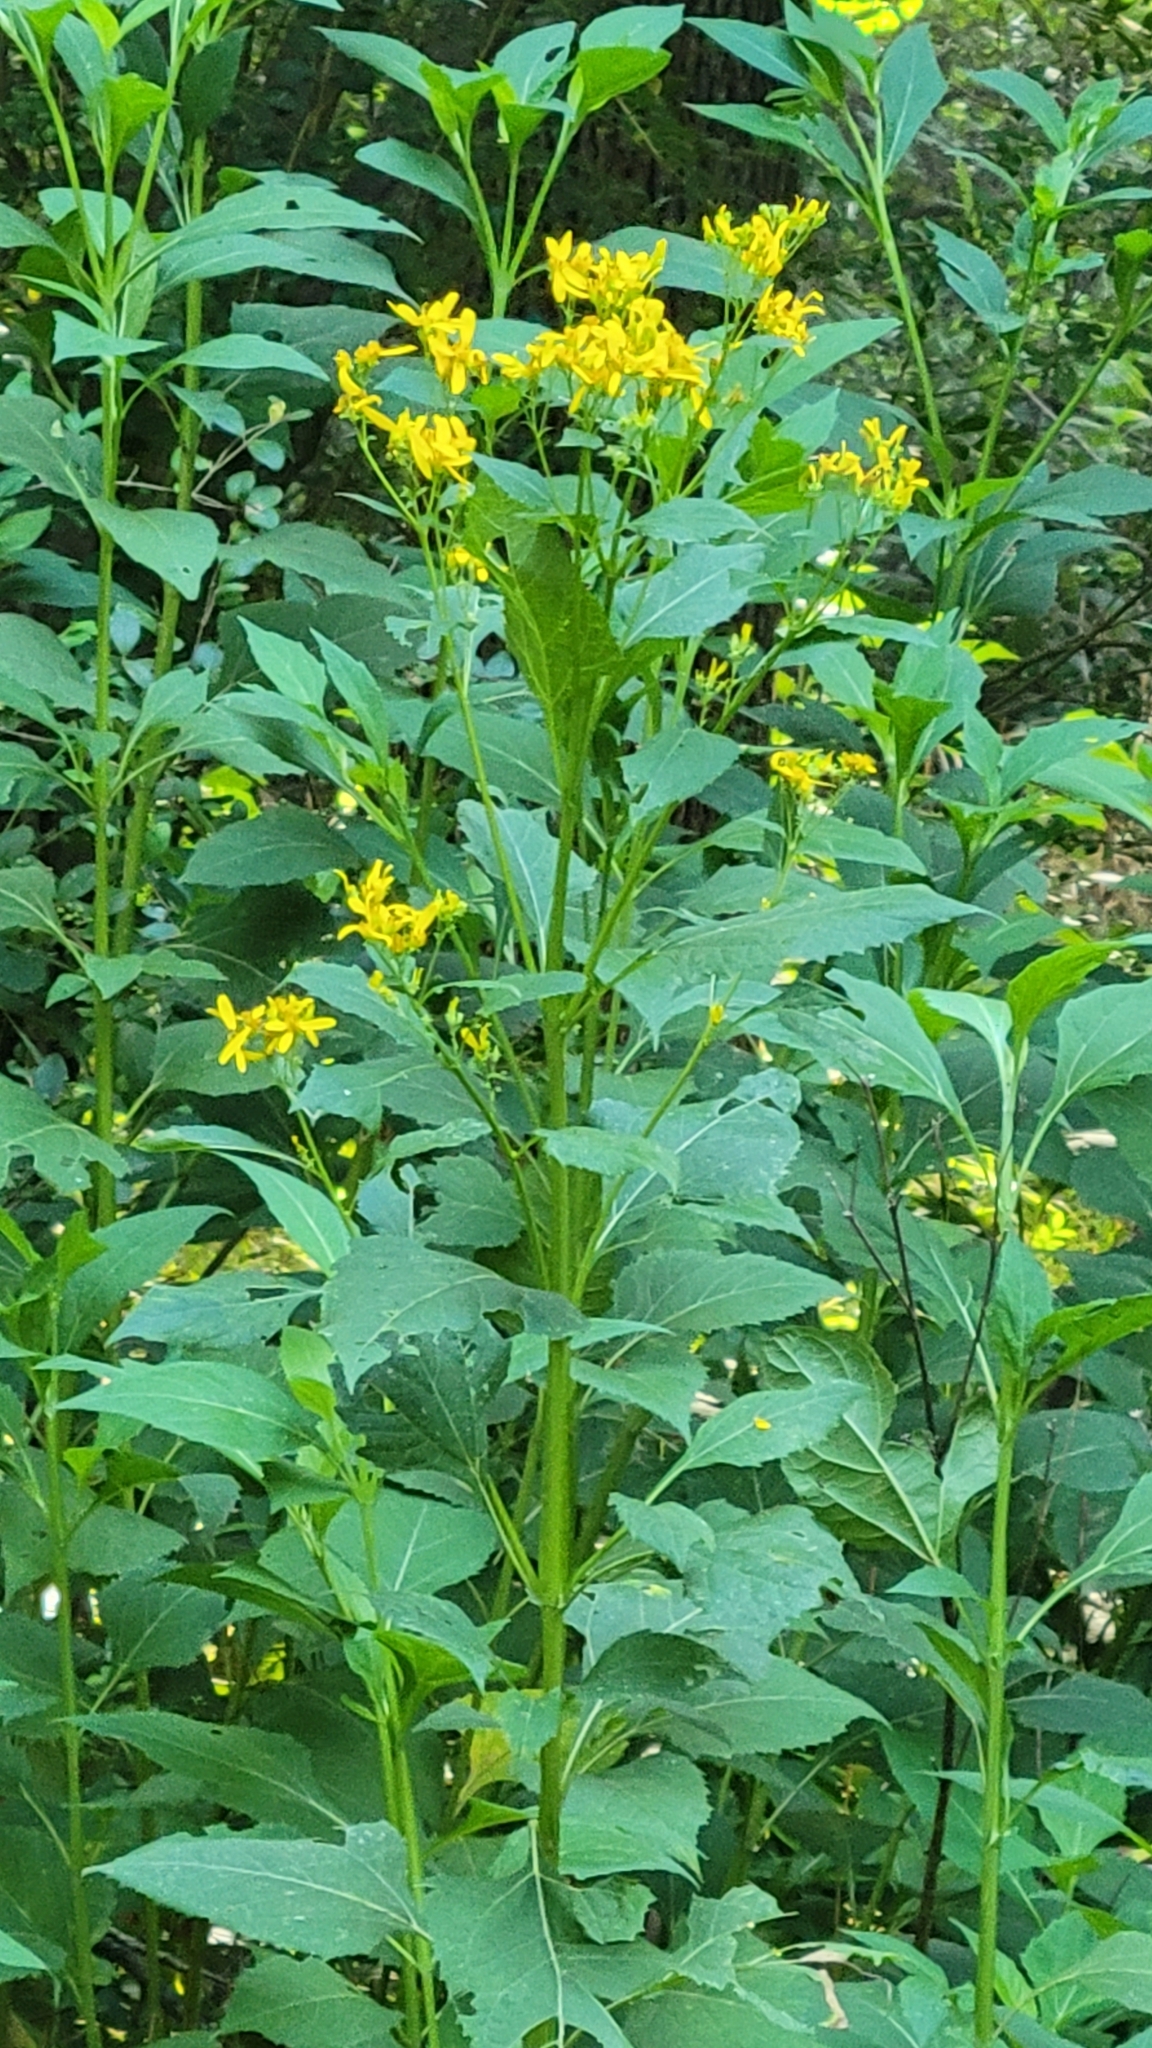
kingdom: Plantae
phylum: Tracheophyta
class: Magnoliopsida
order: Asterales
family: Asteraceae
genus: Verbesina
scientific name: Verbesina occidentalis
